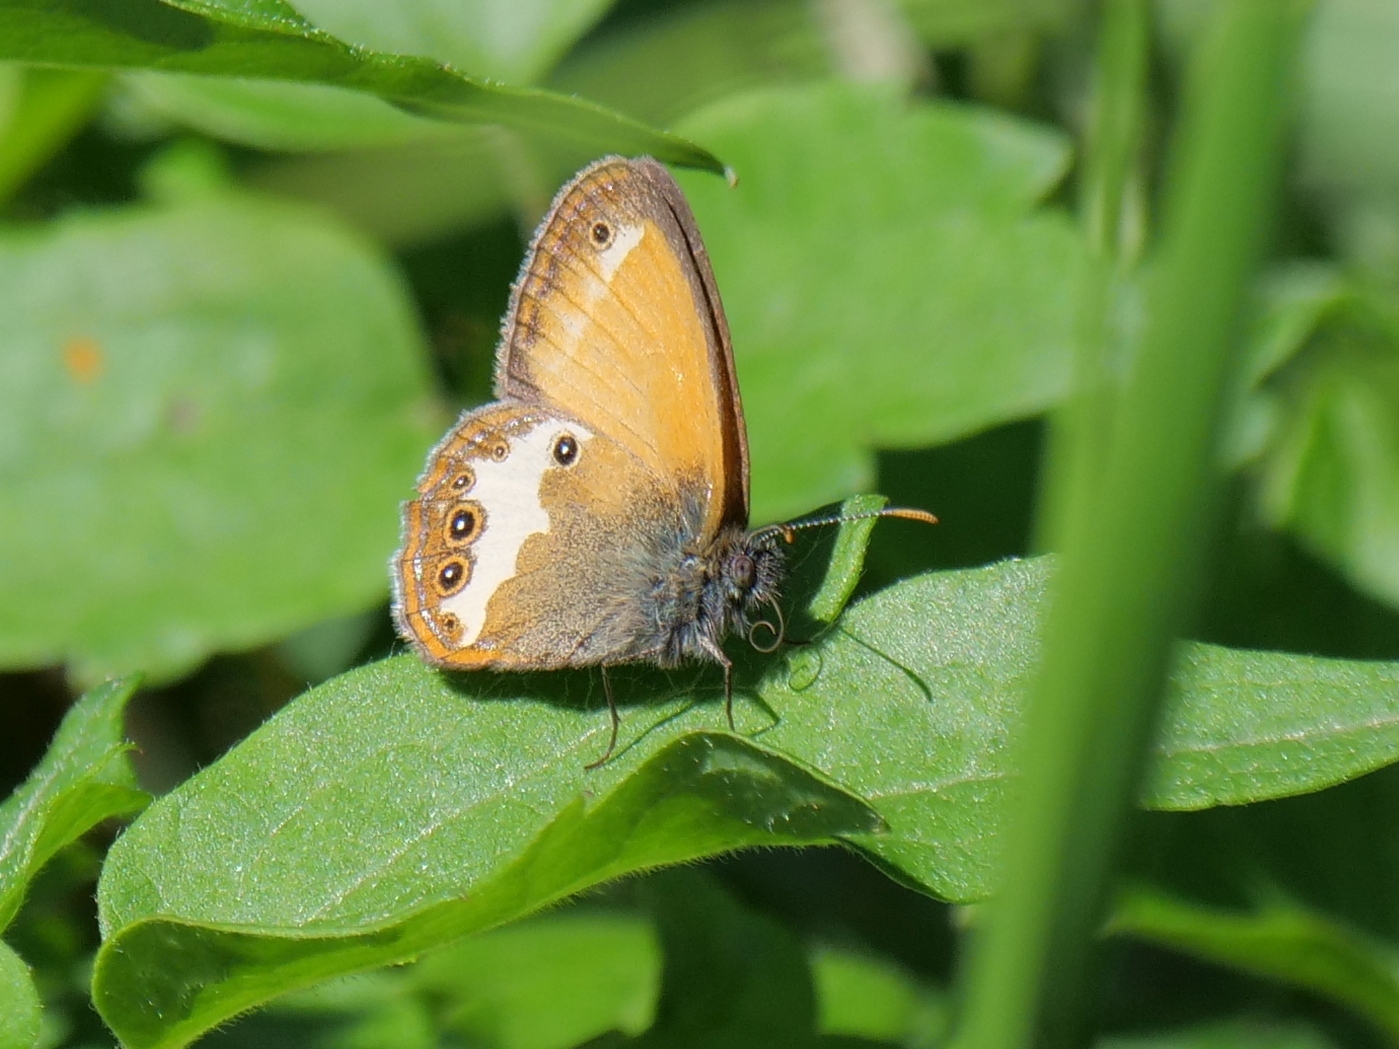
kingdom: Animalia
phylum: Arthropoda
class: Insecta
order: Lepidoptera
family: Nymphalidae
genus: Coenonympha
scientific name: Coenonympha arcania
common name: Pearly heath
